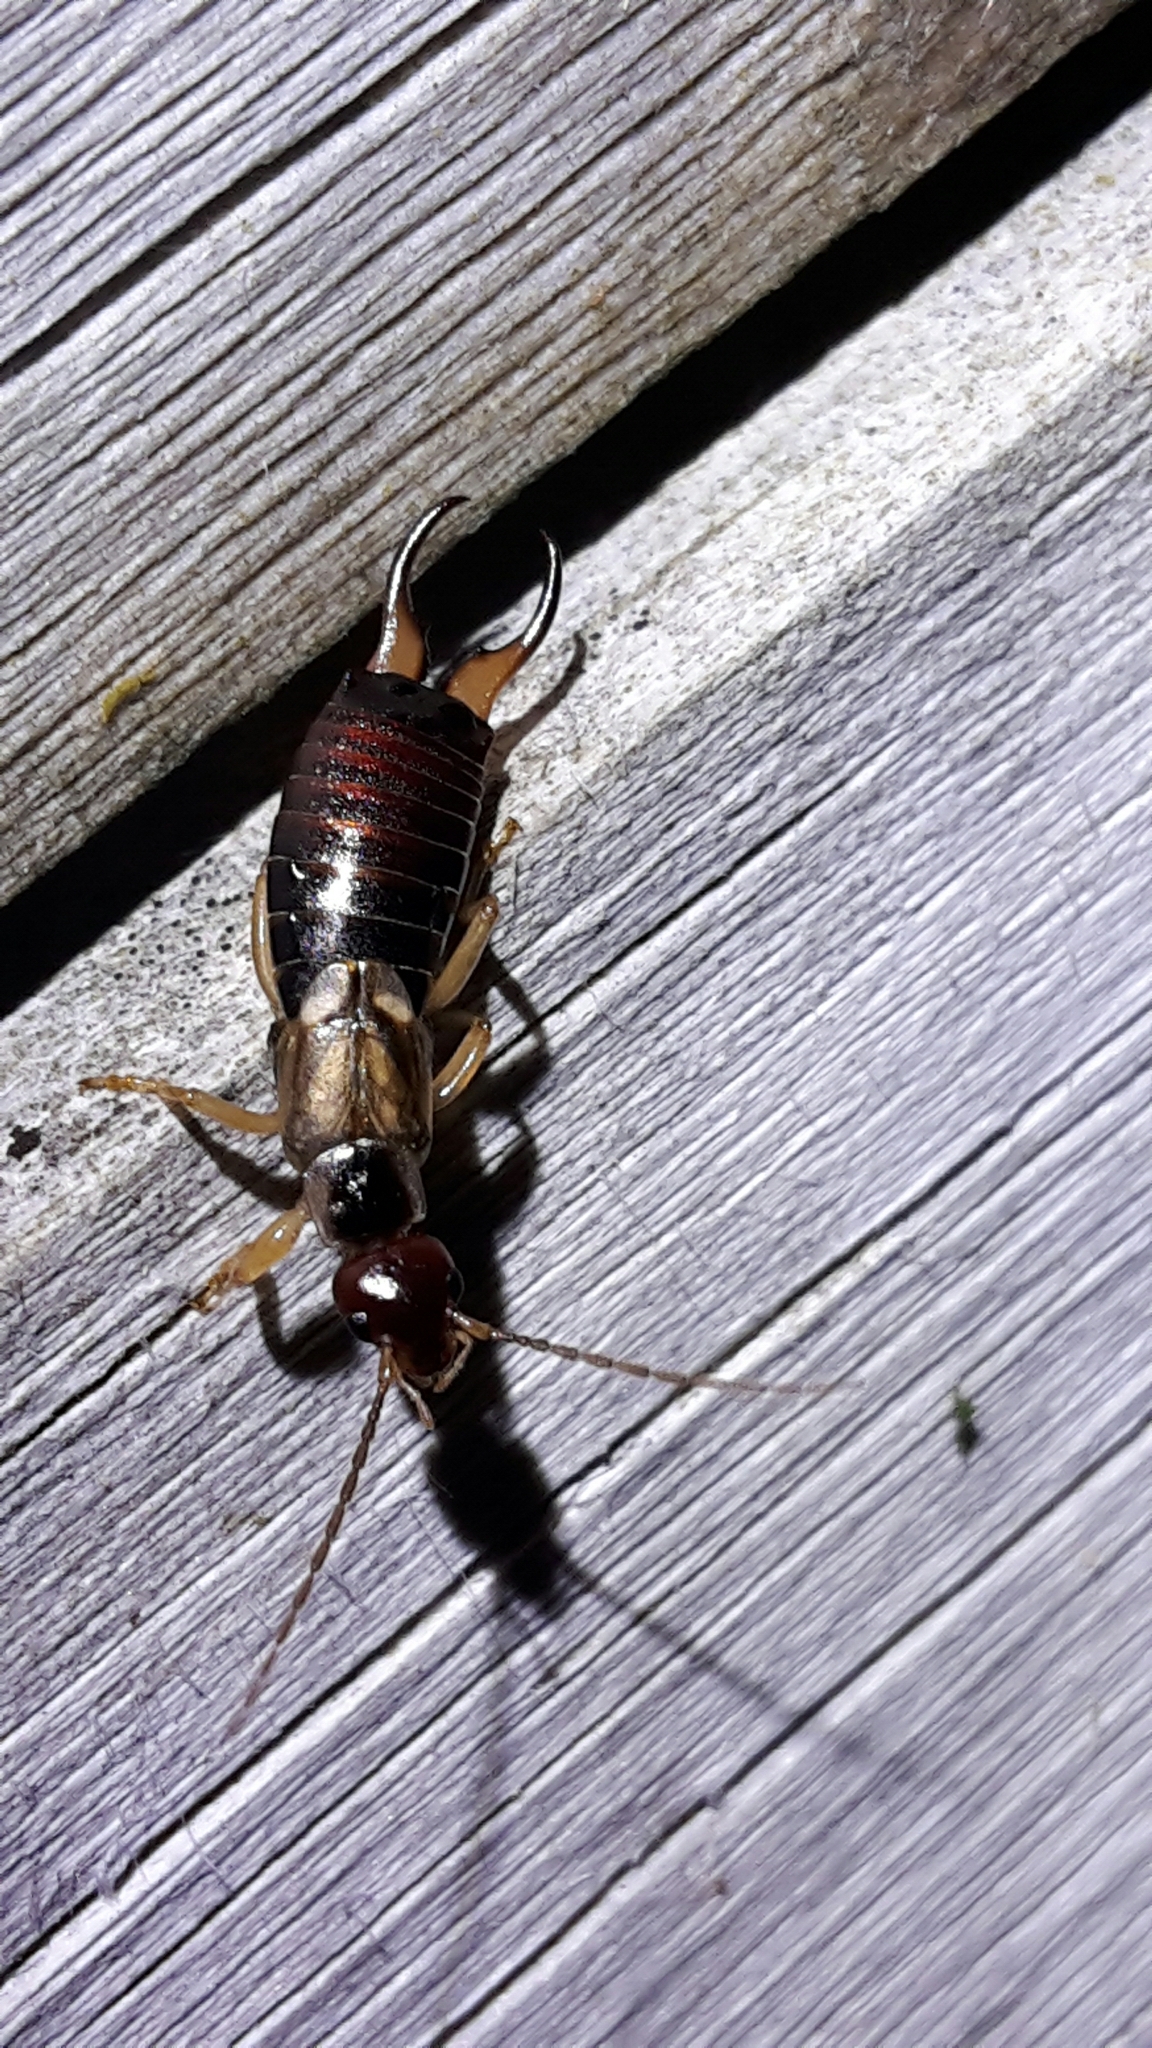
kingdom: Animalia
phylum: Arthropoda
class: Insecta
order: Dermaptera
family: Forficulidae
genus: Forficula
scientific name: Forficula
